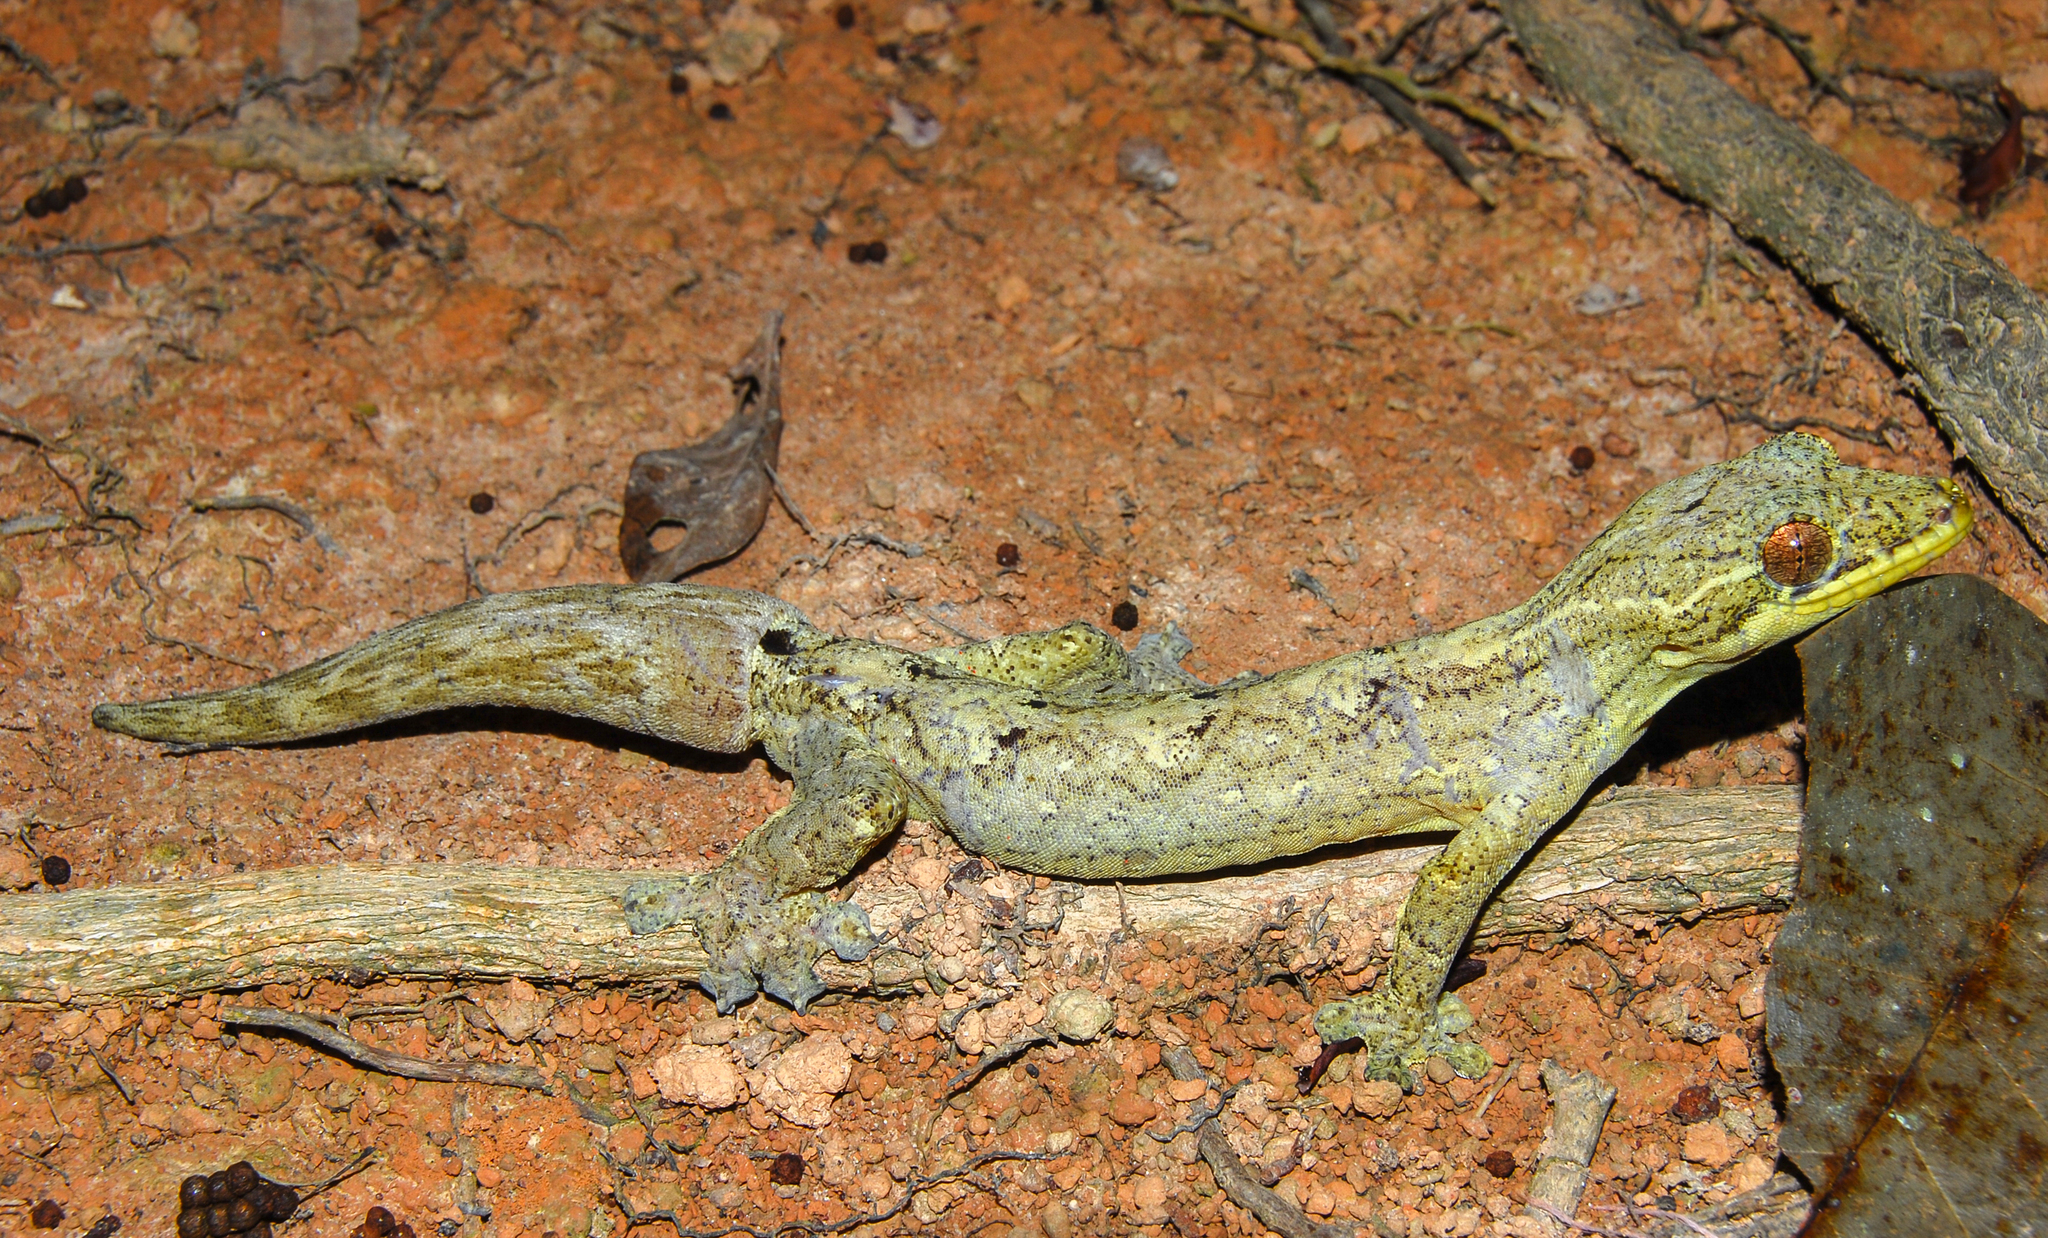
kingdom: Animalia
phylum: Chordata
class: Squamata
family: Phyllodactylidae
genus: Thecadactylus
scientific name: Thecadactylus solimoensis
